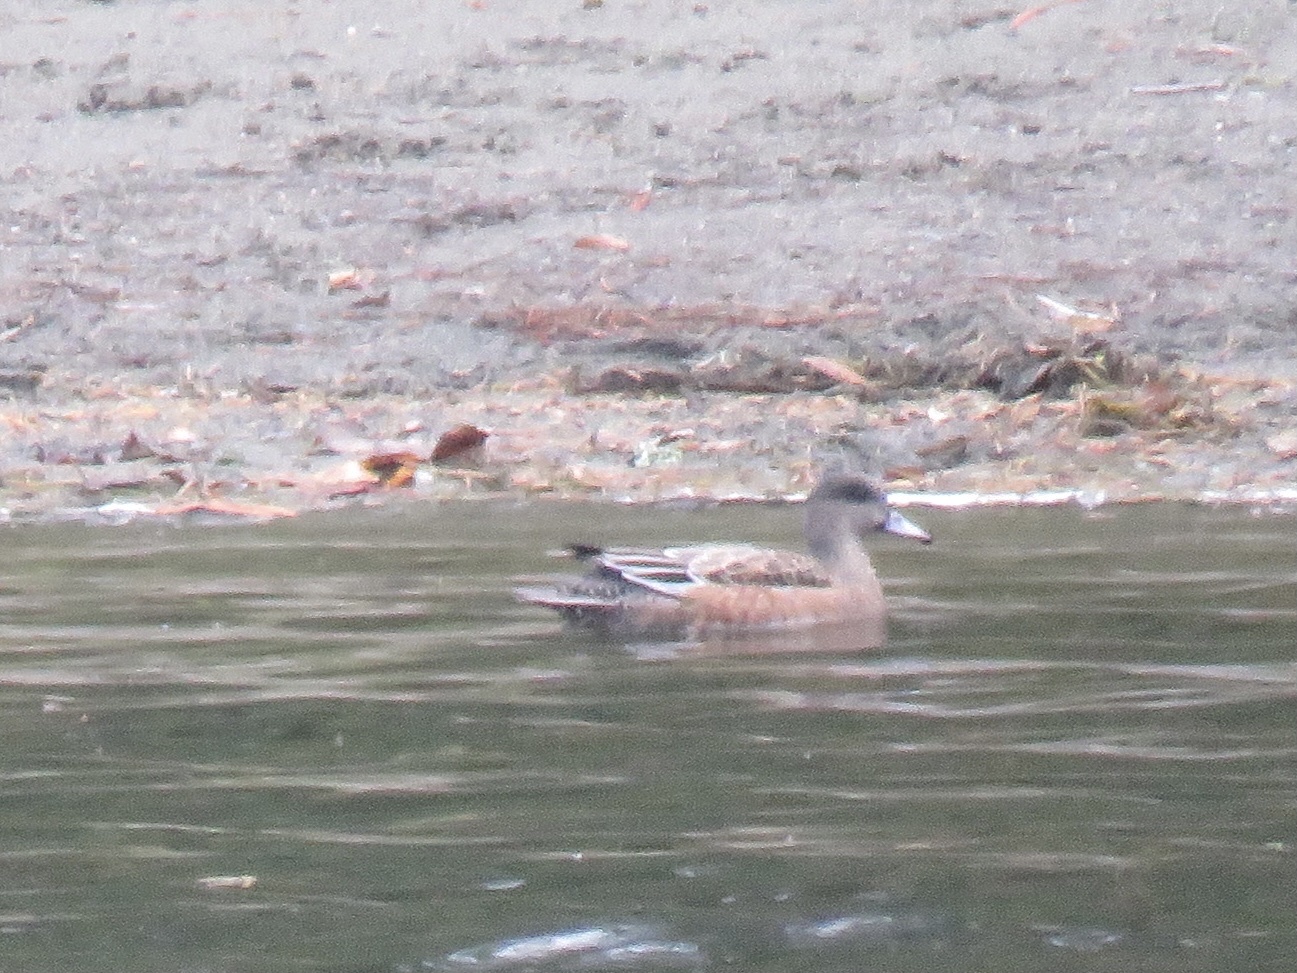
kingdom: Animalia
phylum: Chordata
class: Aves
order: Anseriformes
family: Anatidae
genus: Mareca
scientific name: Mareca americana
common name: American wigeon
